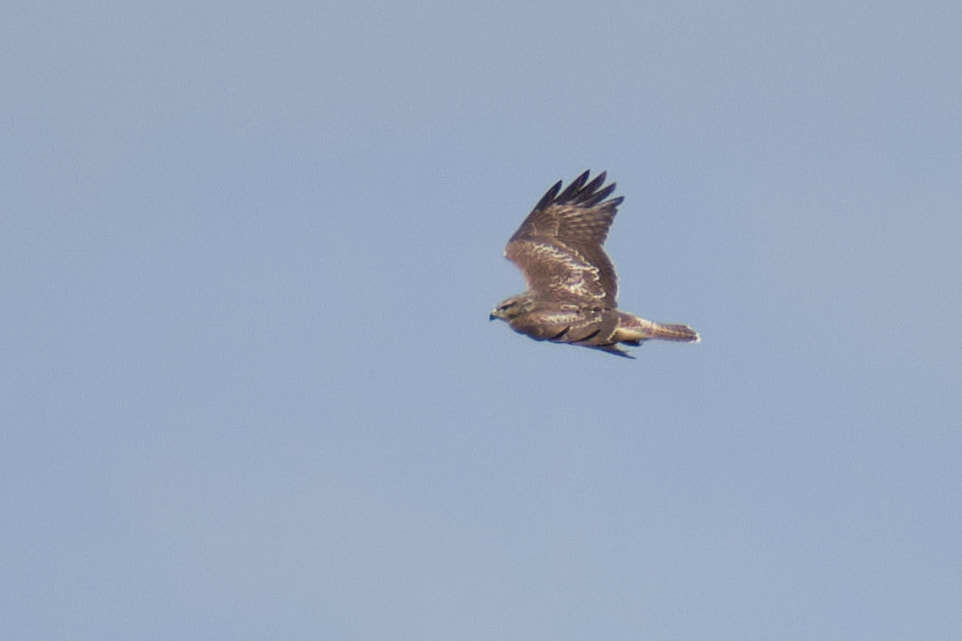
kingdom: Animalia
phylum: Chordata
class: Aves
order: Accipitriformes
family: Accipitridae
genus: Buteo
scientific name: Buteo buteo
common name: Common buzzard
